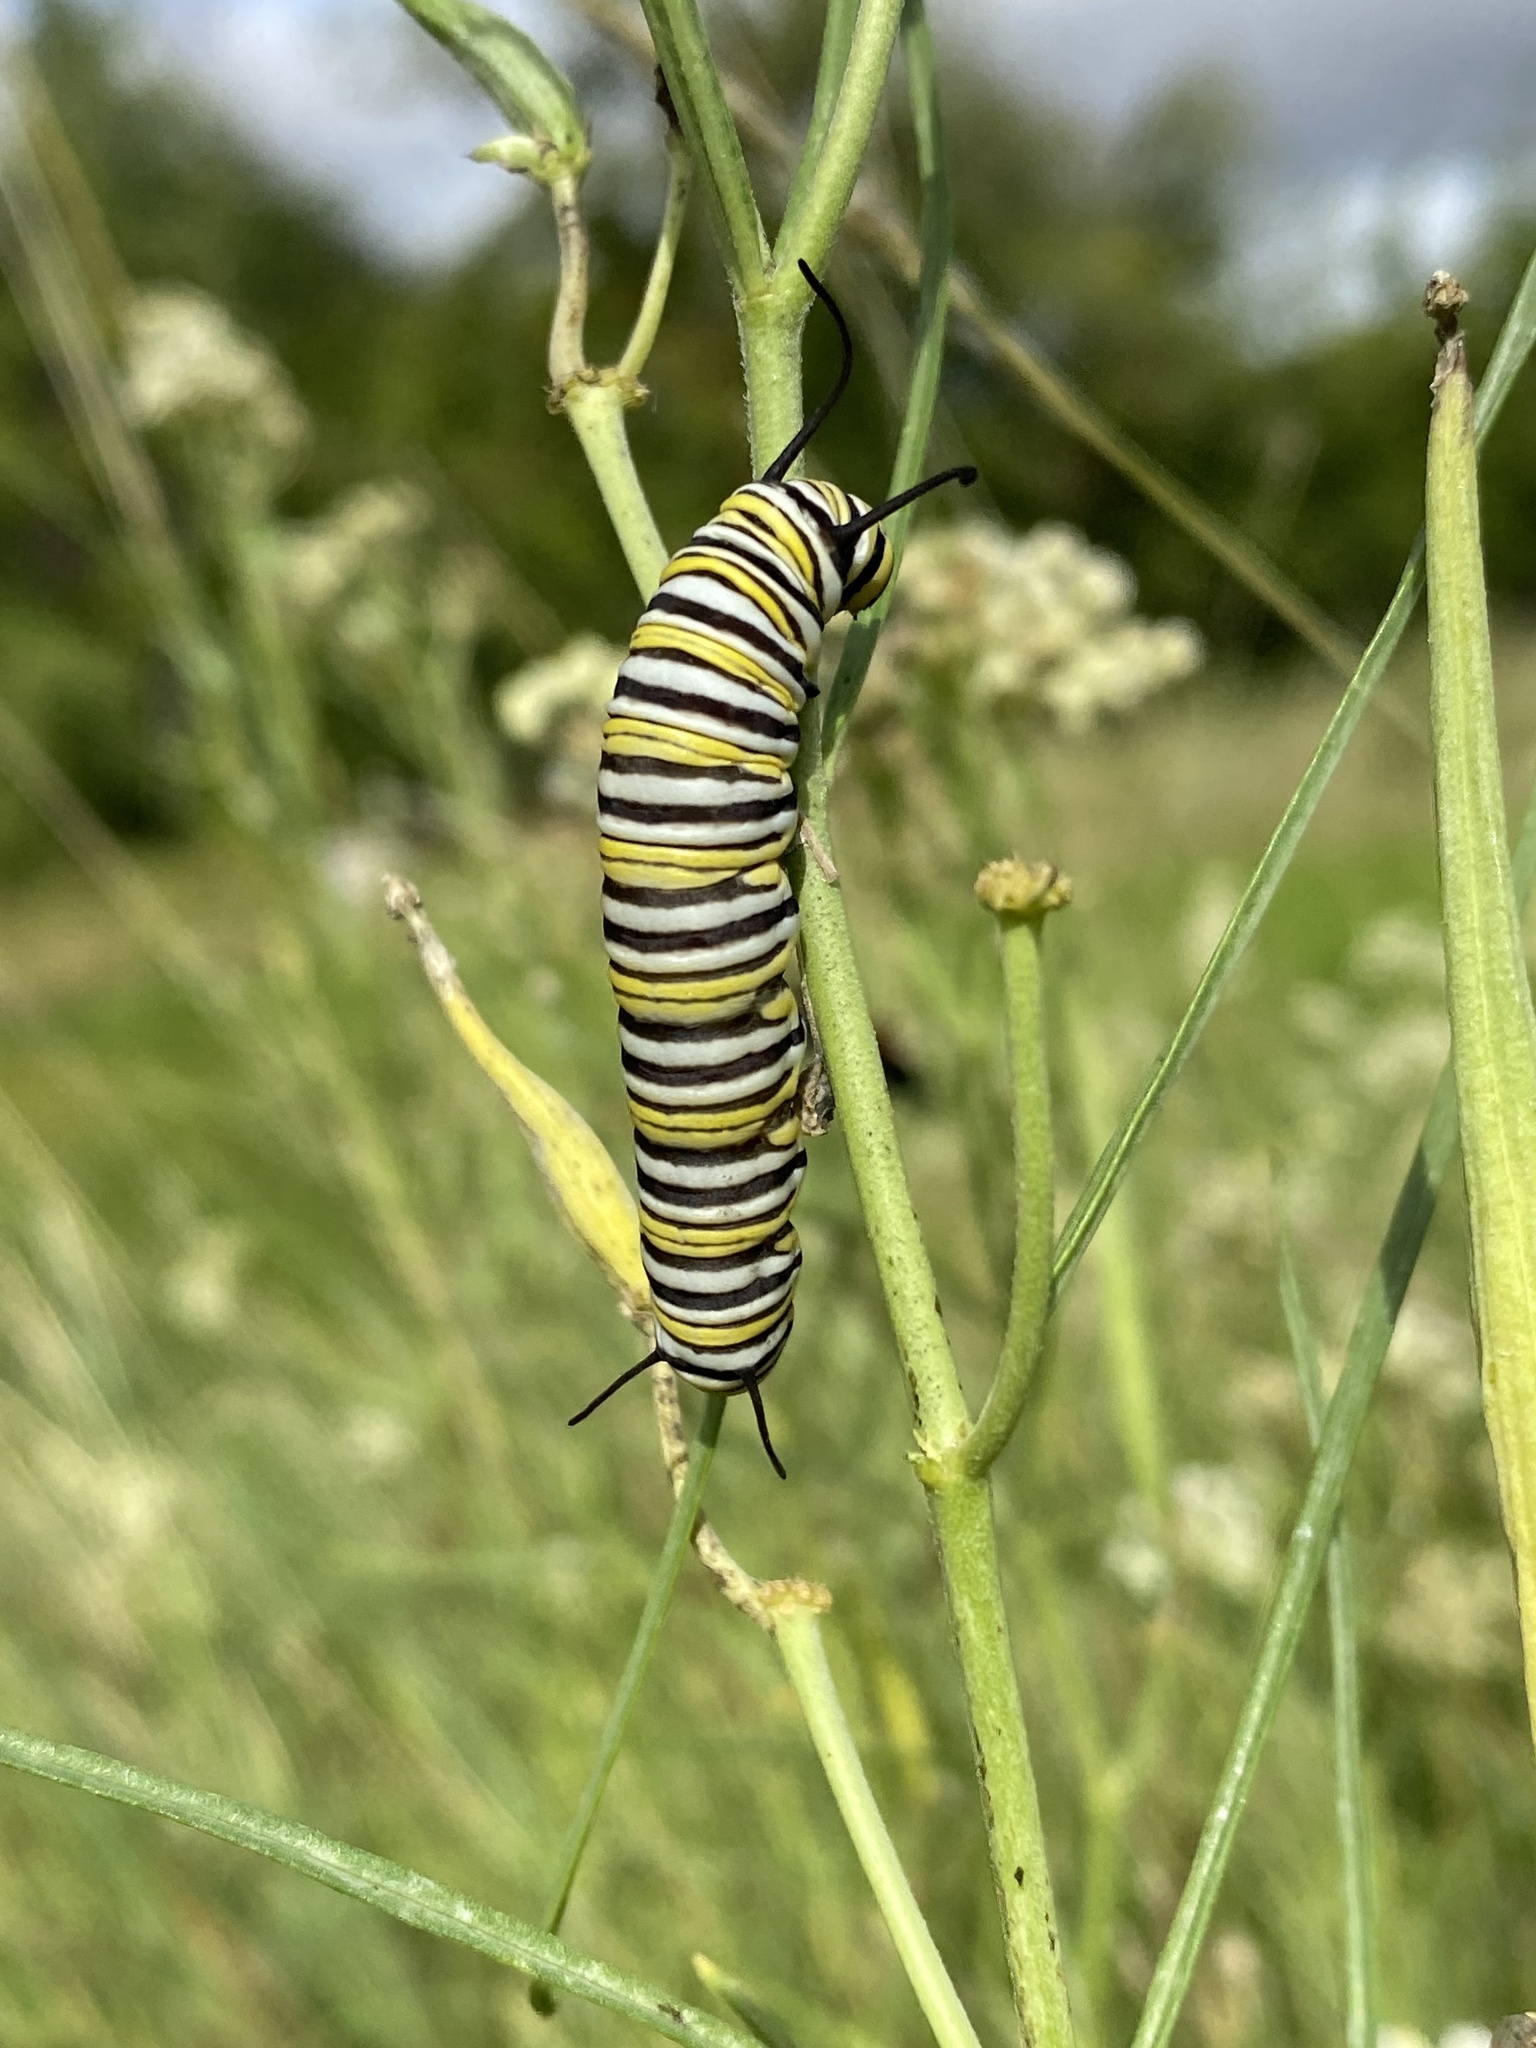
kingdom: Animalia
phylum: Arthropoda
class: Insecta
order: Lepidoptera
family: Nymphalidae
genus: Danaus
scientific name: Danaus plexippus
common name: Monarch
